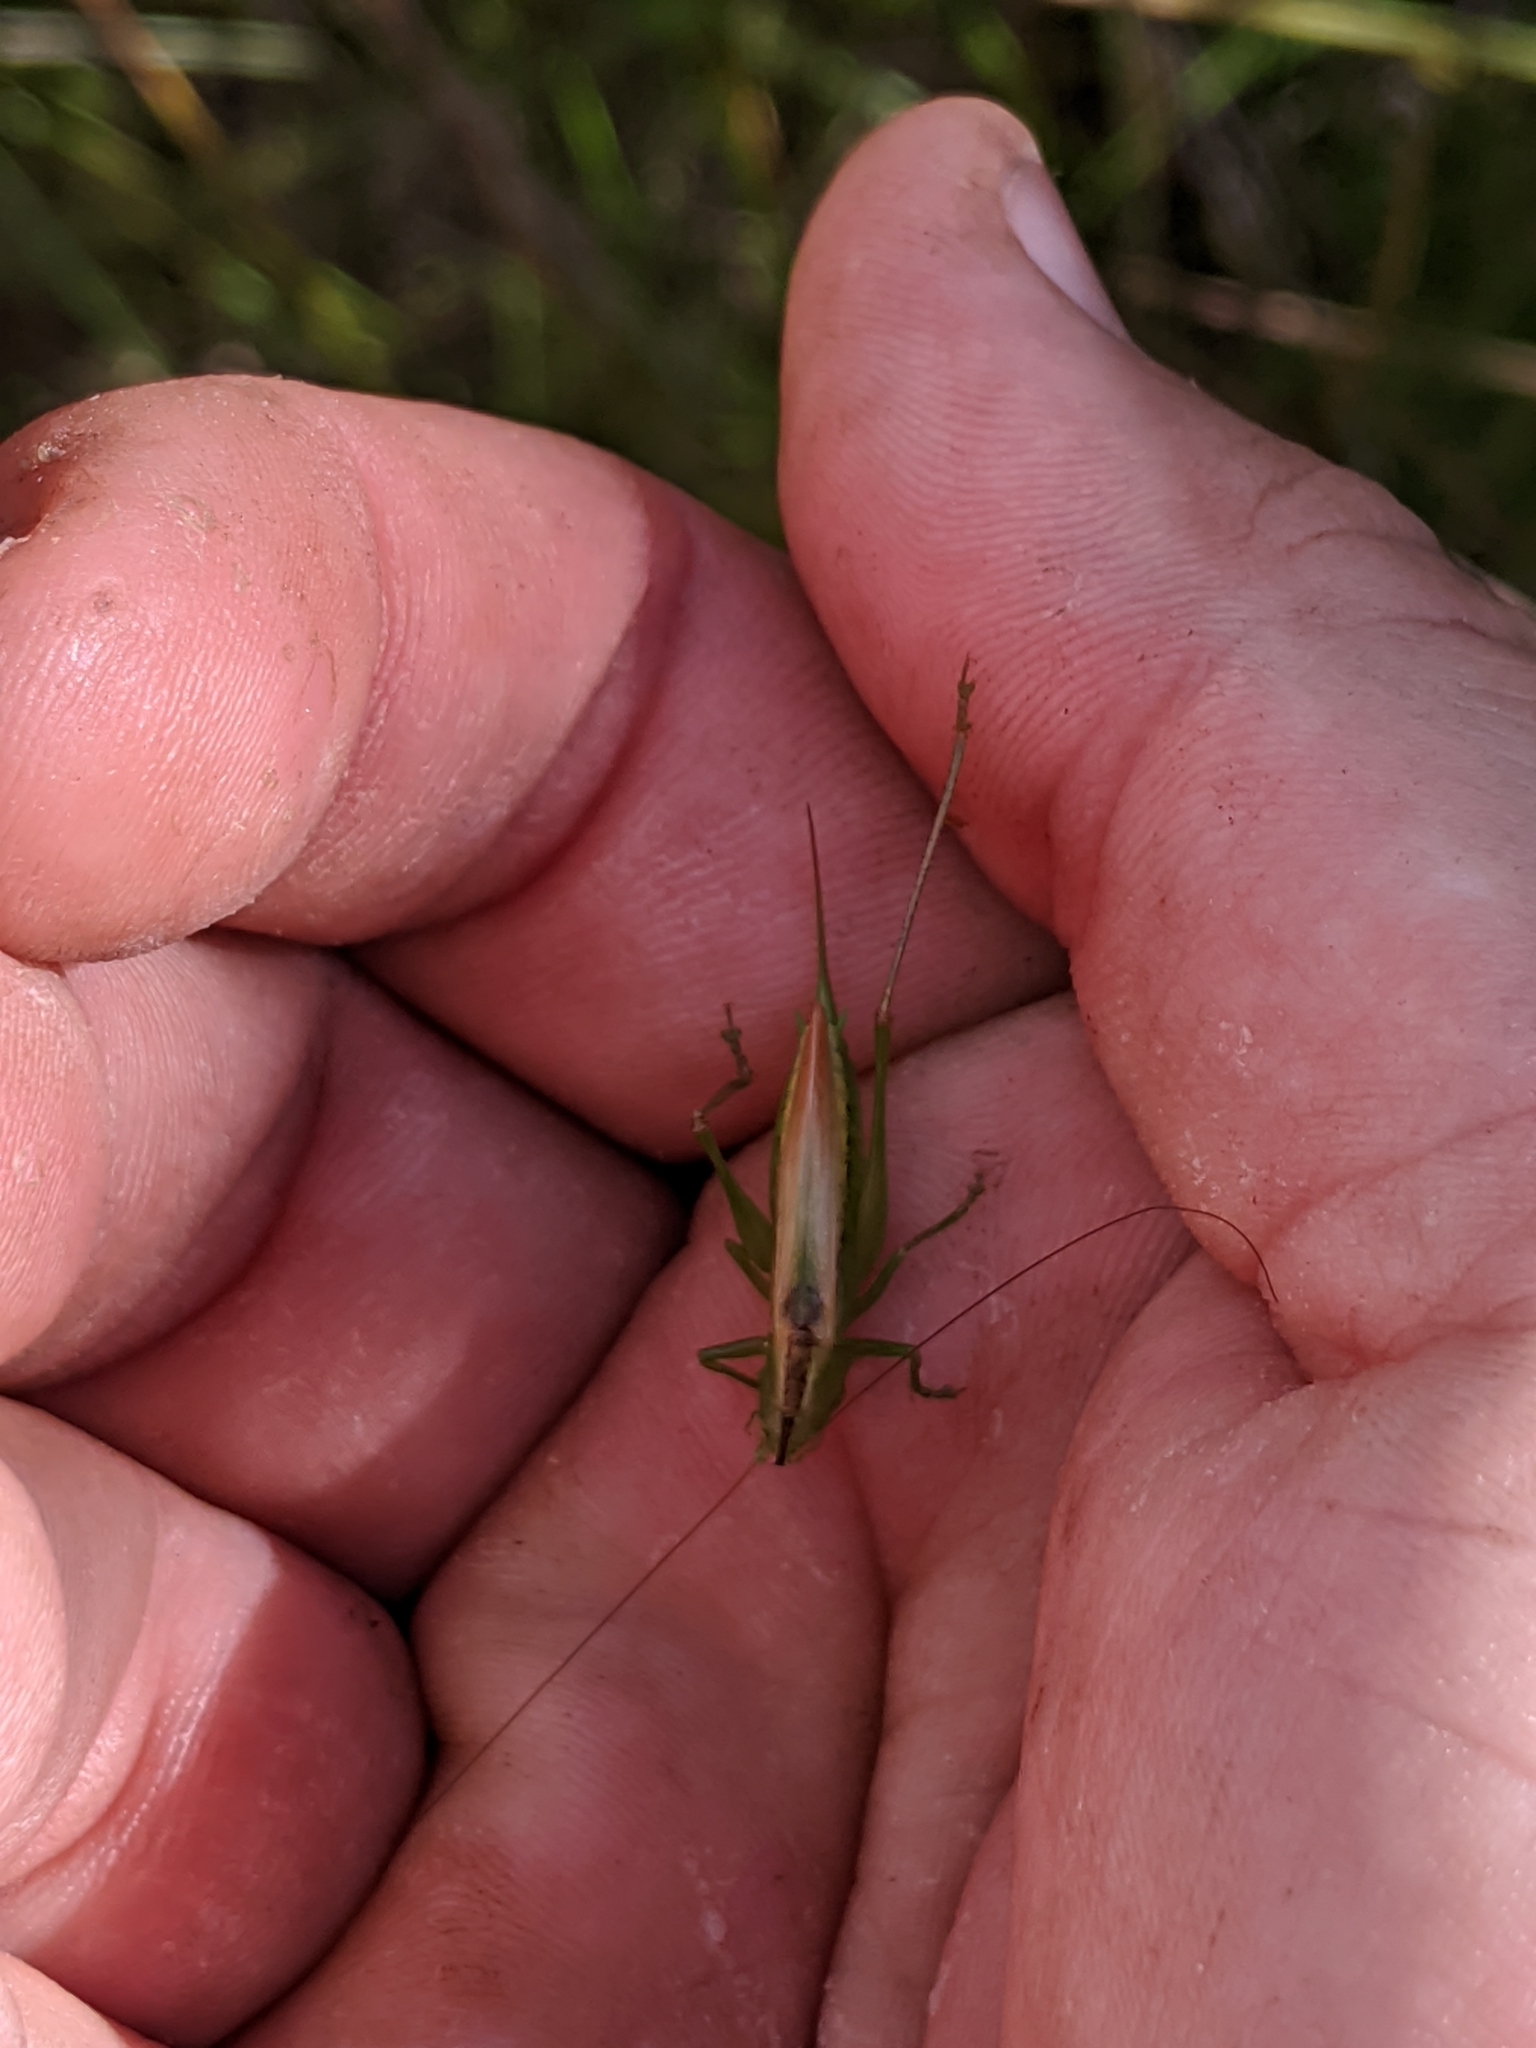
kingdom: Animalia
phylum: Arthropoda
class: Insecta
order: Orthoptera
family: Tettigoniidae
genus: Conocephalus
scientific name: Conocephalus fasciatus
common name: Slender meadow katydid
